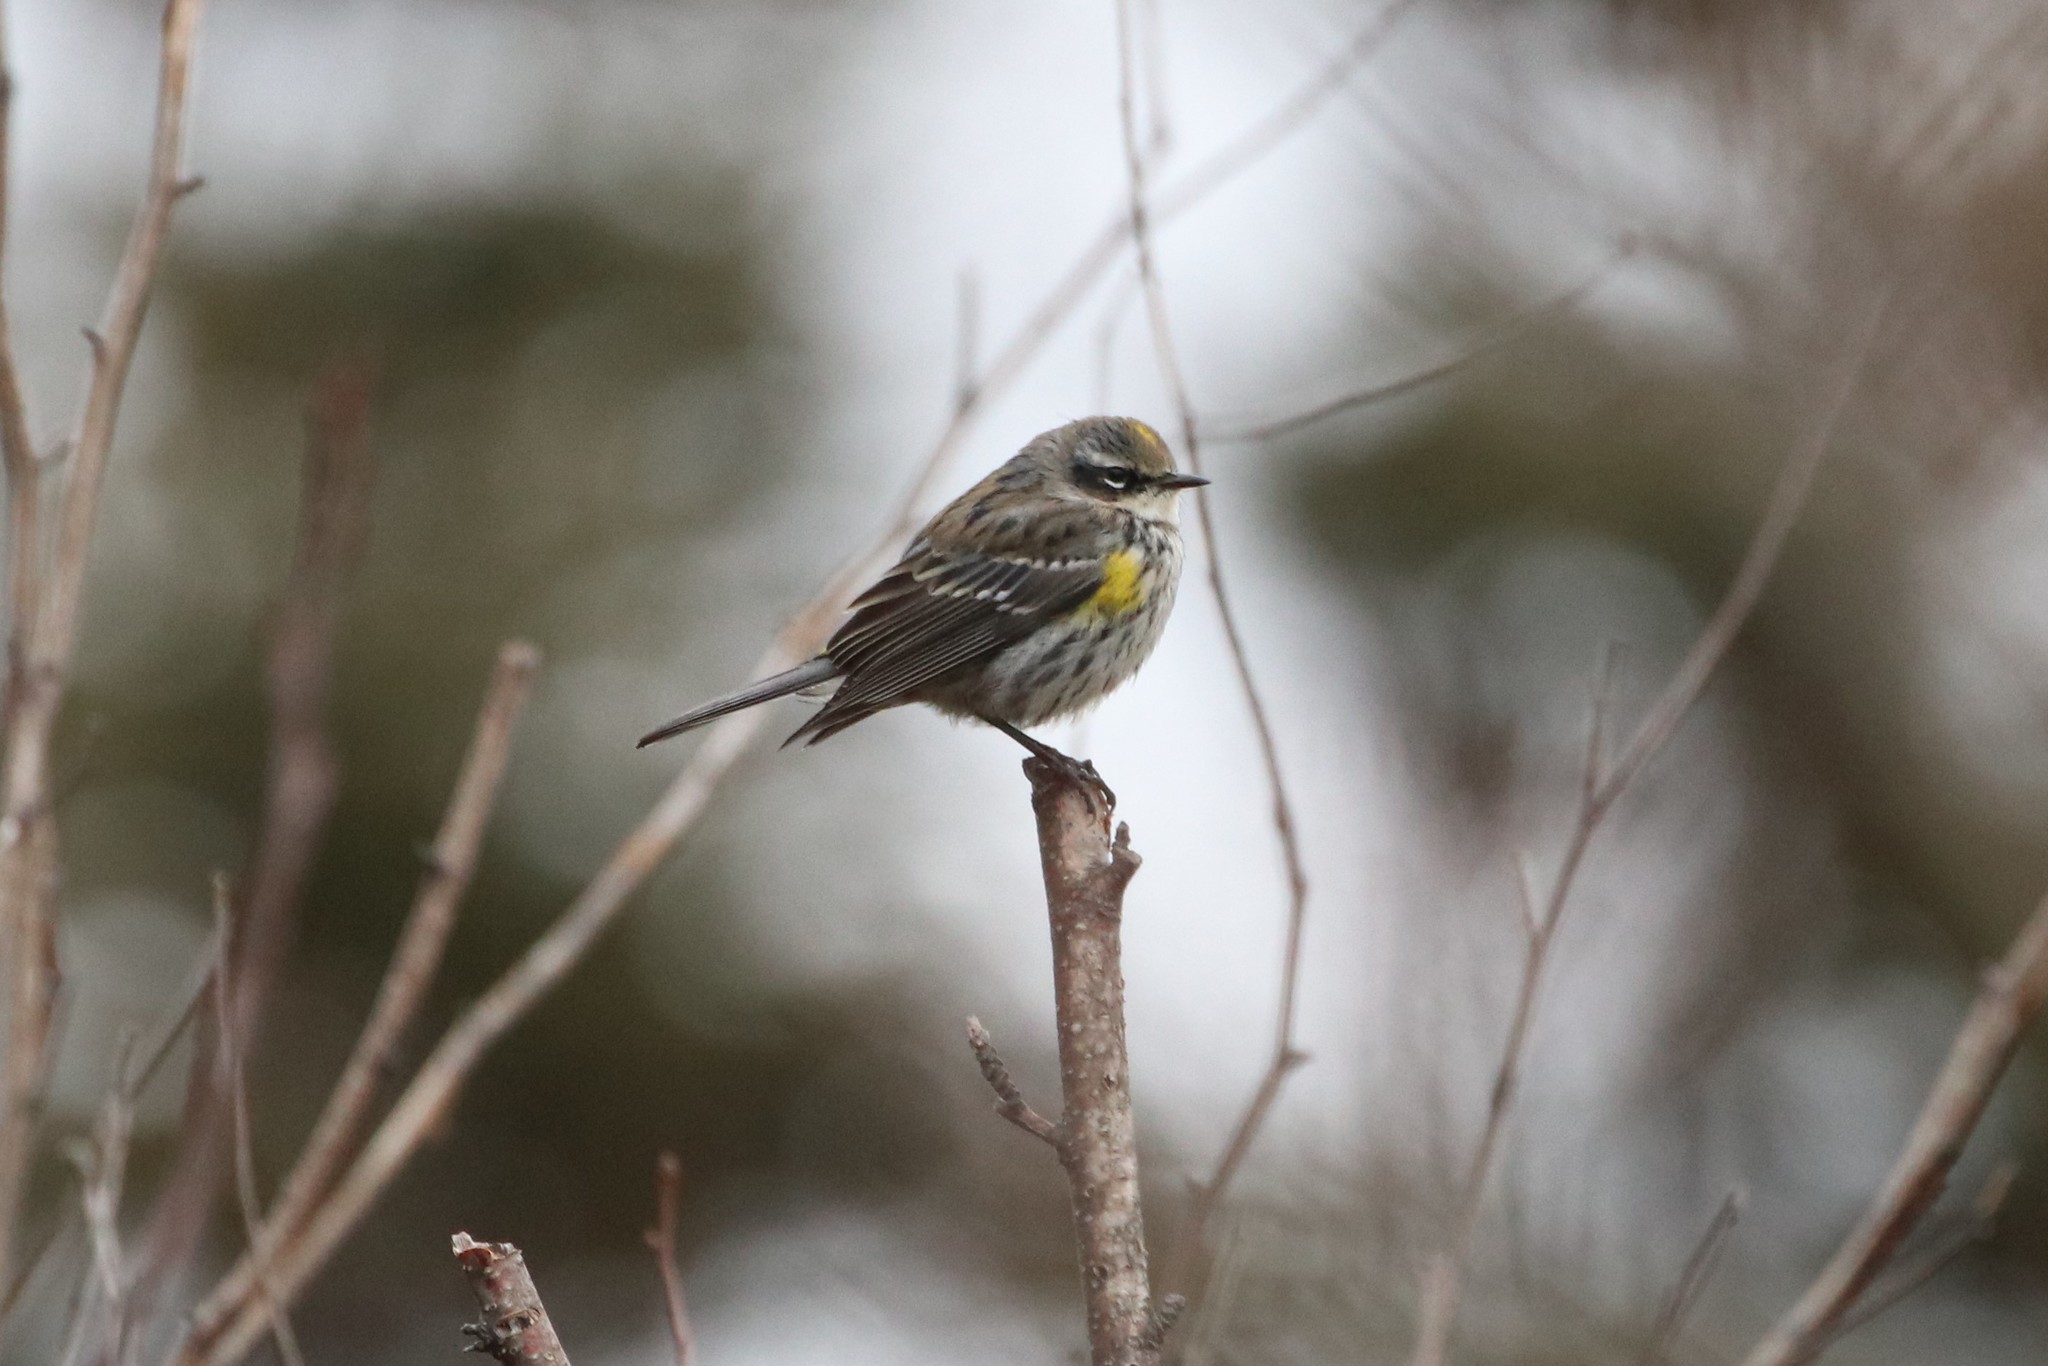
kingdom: Animalia
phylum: Chordata
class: Aves
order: Passeriformes
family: Parulidae
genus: Setophaga
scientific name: Setophaga coronata
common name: Myrtle warbler
